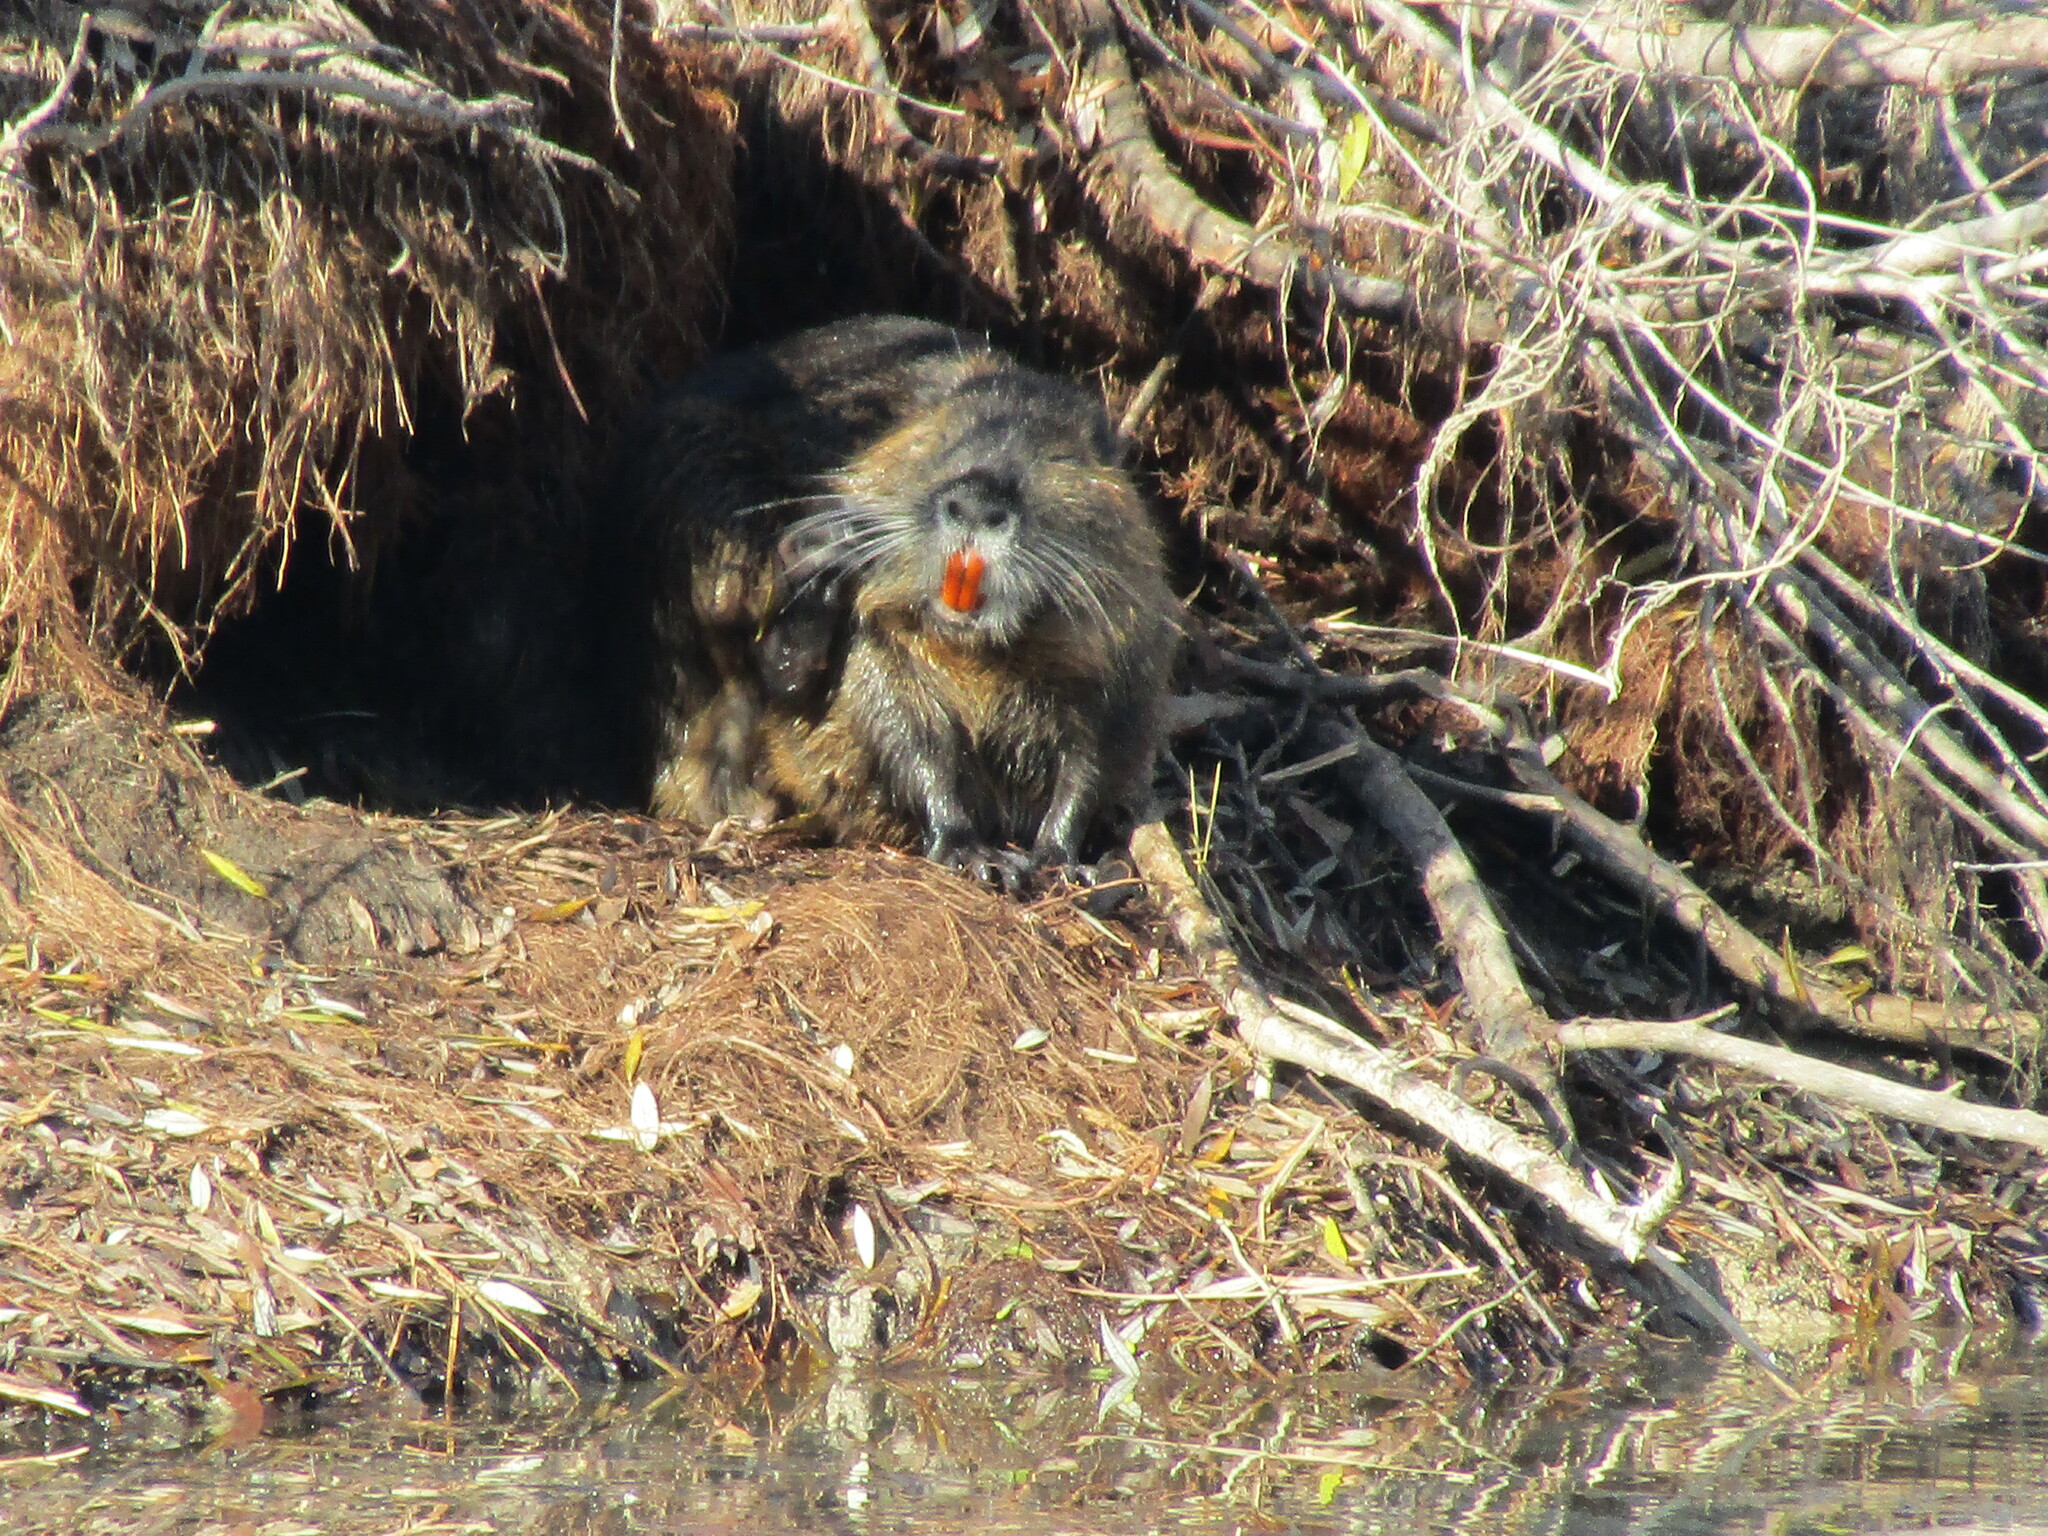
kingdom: Animalia
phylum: Chordata
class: Mammalia
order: Rodentia
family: Myocastoridae
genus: Myocastor
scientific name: Myocastor coypus
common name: Coypu
